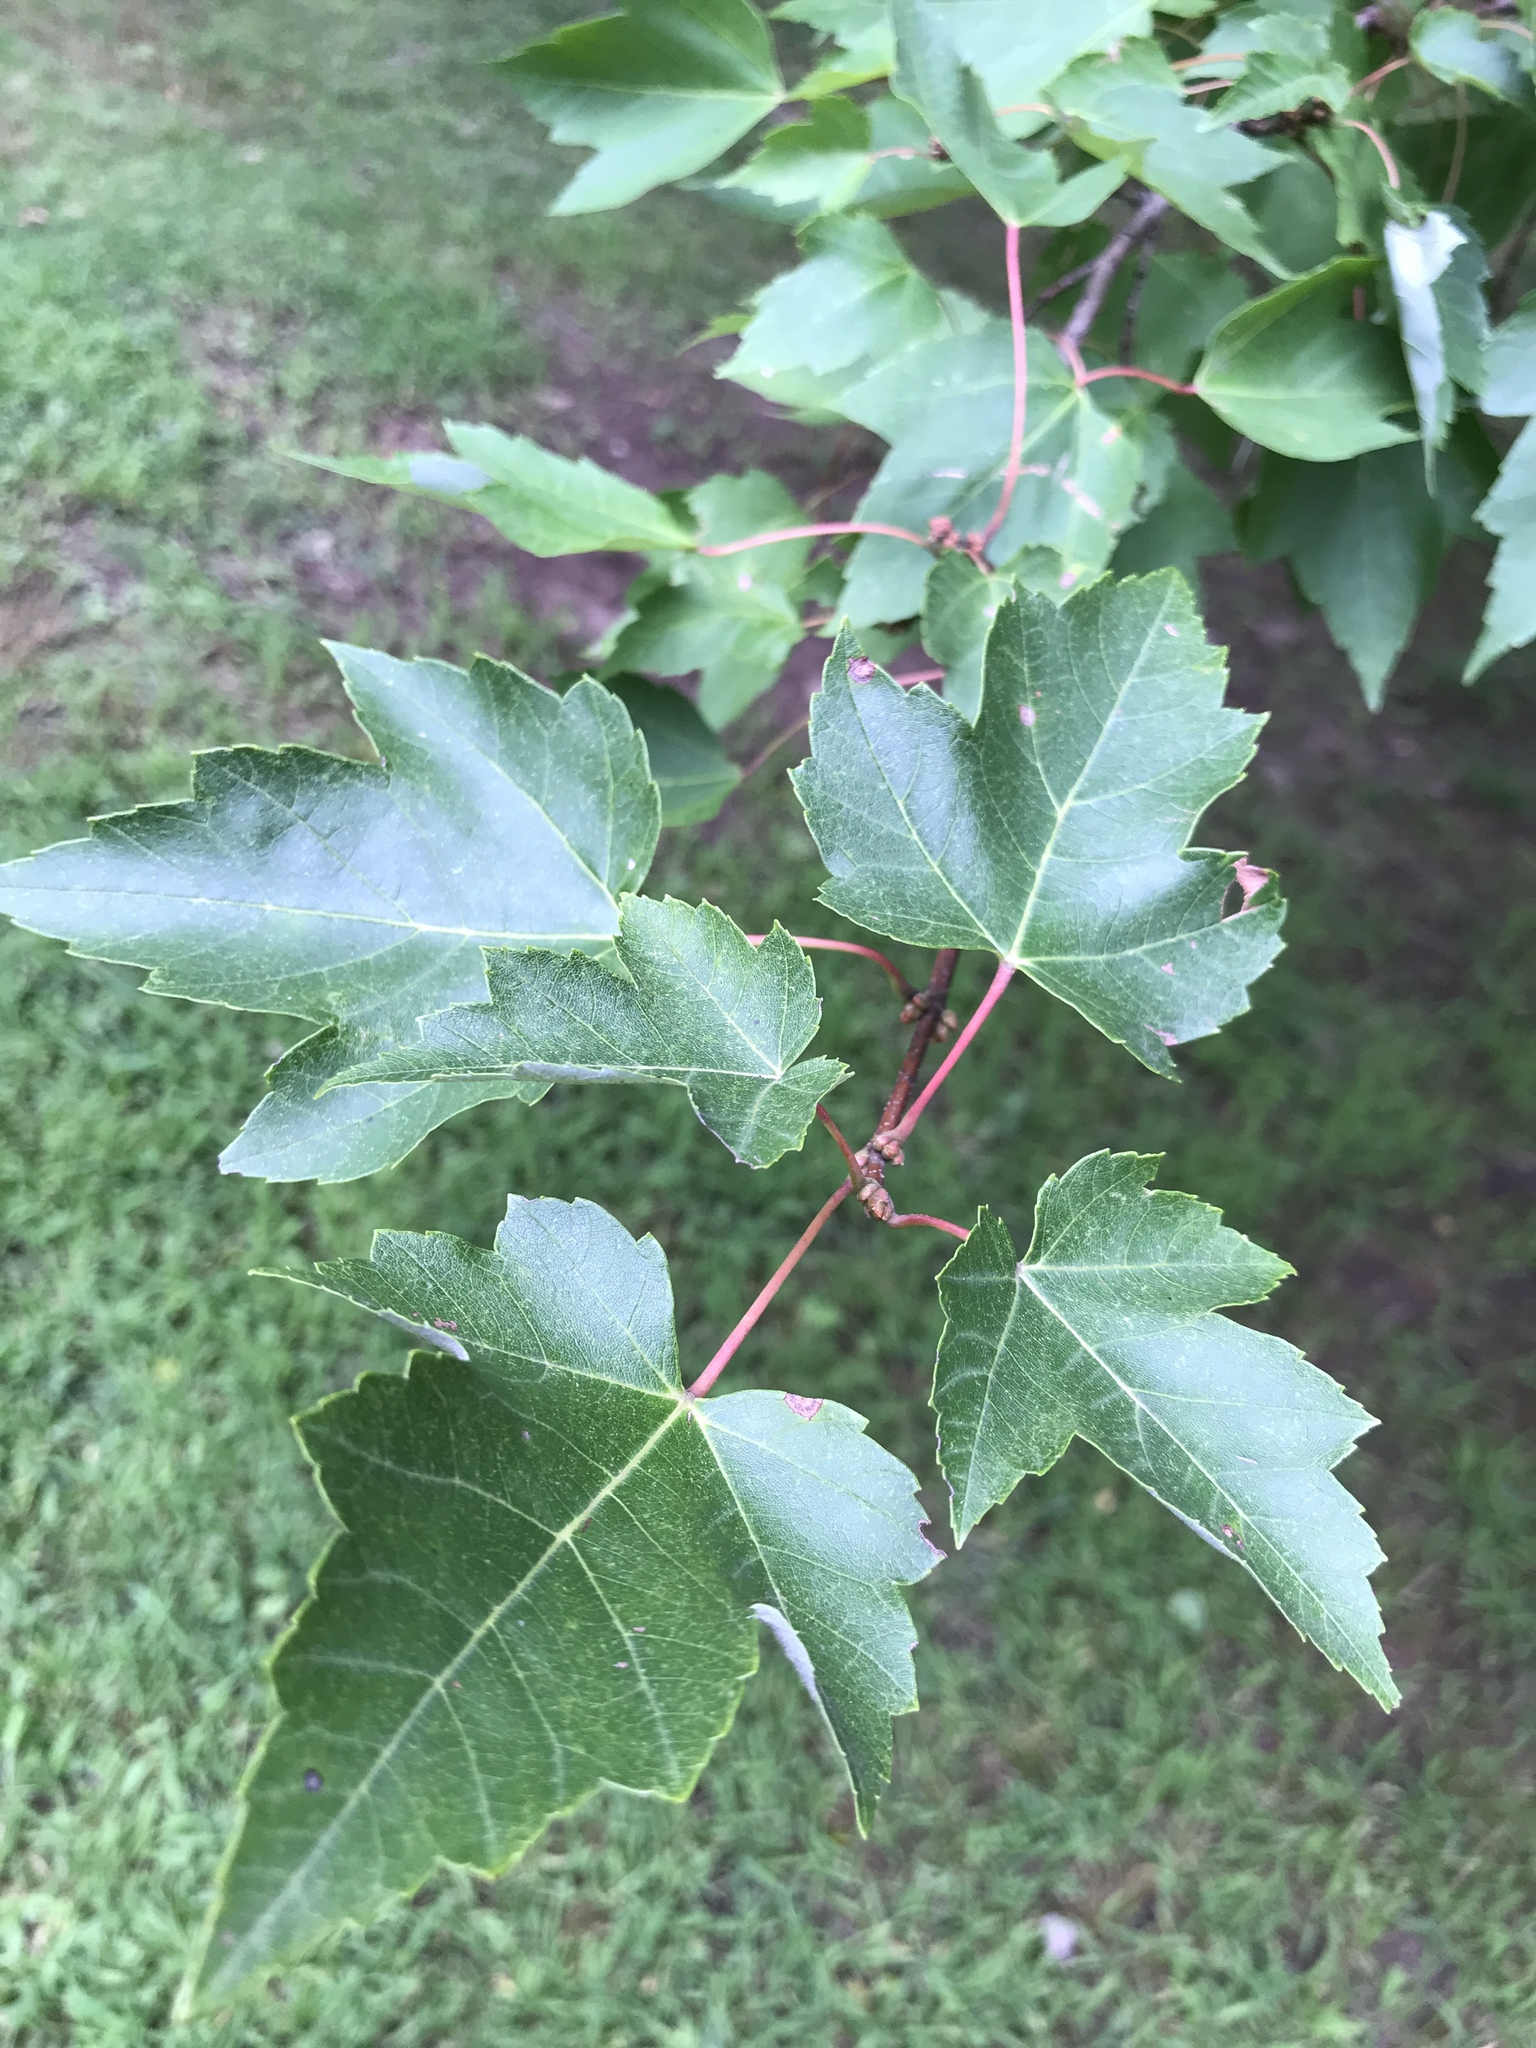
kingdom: Plantae
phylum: Tracheophyta
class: Magnoliopsida
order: Sapindales
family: Sapindaceae
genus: Acer
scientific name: Acer rubrum
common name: Red maple
